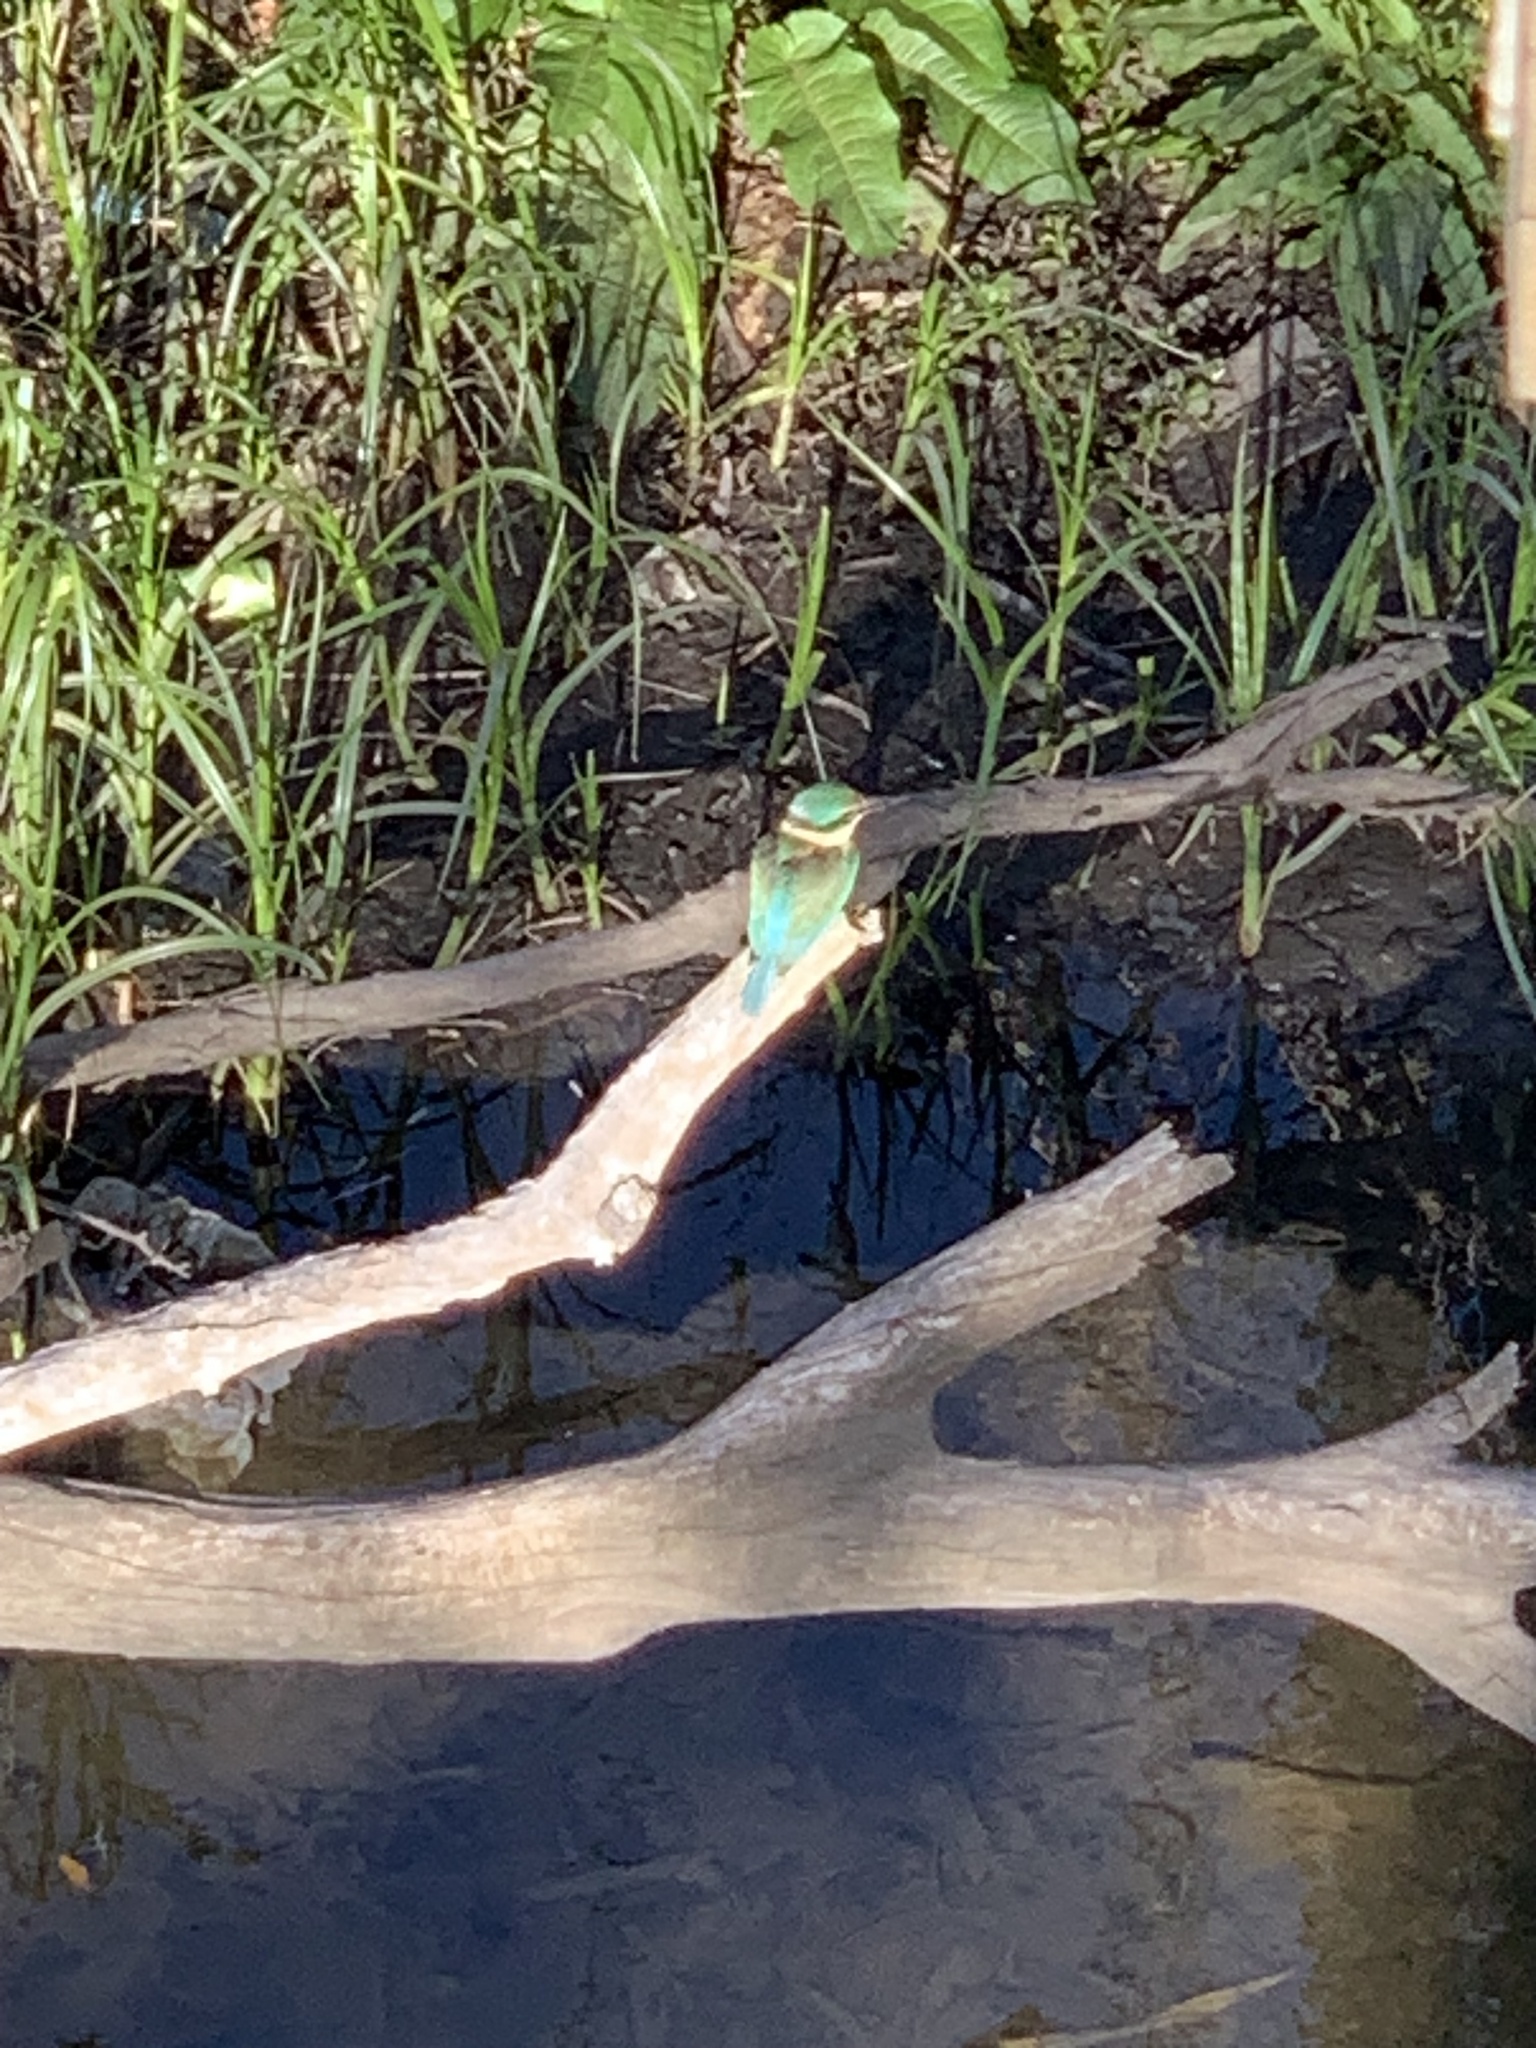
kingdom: Animalia
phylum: Chordata
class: Aves
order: Coraciiformes
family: Alcedinidae
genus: Todiramphus
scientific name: Todiramphus sanctus
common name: Sacred kingfisher
